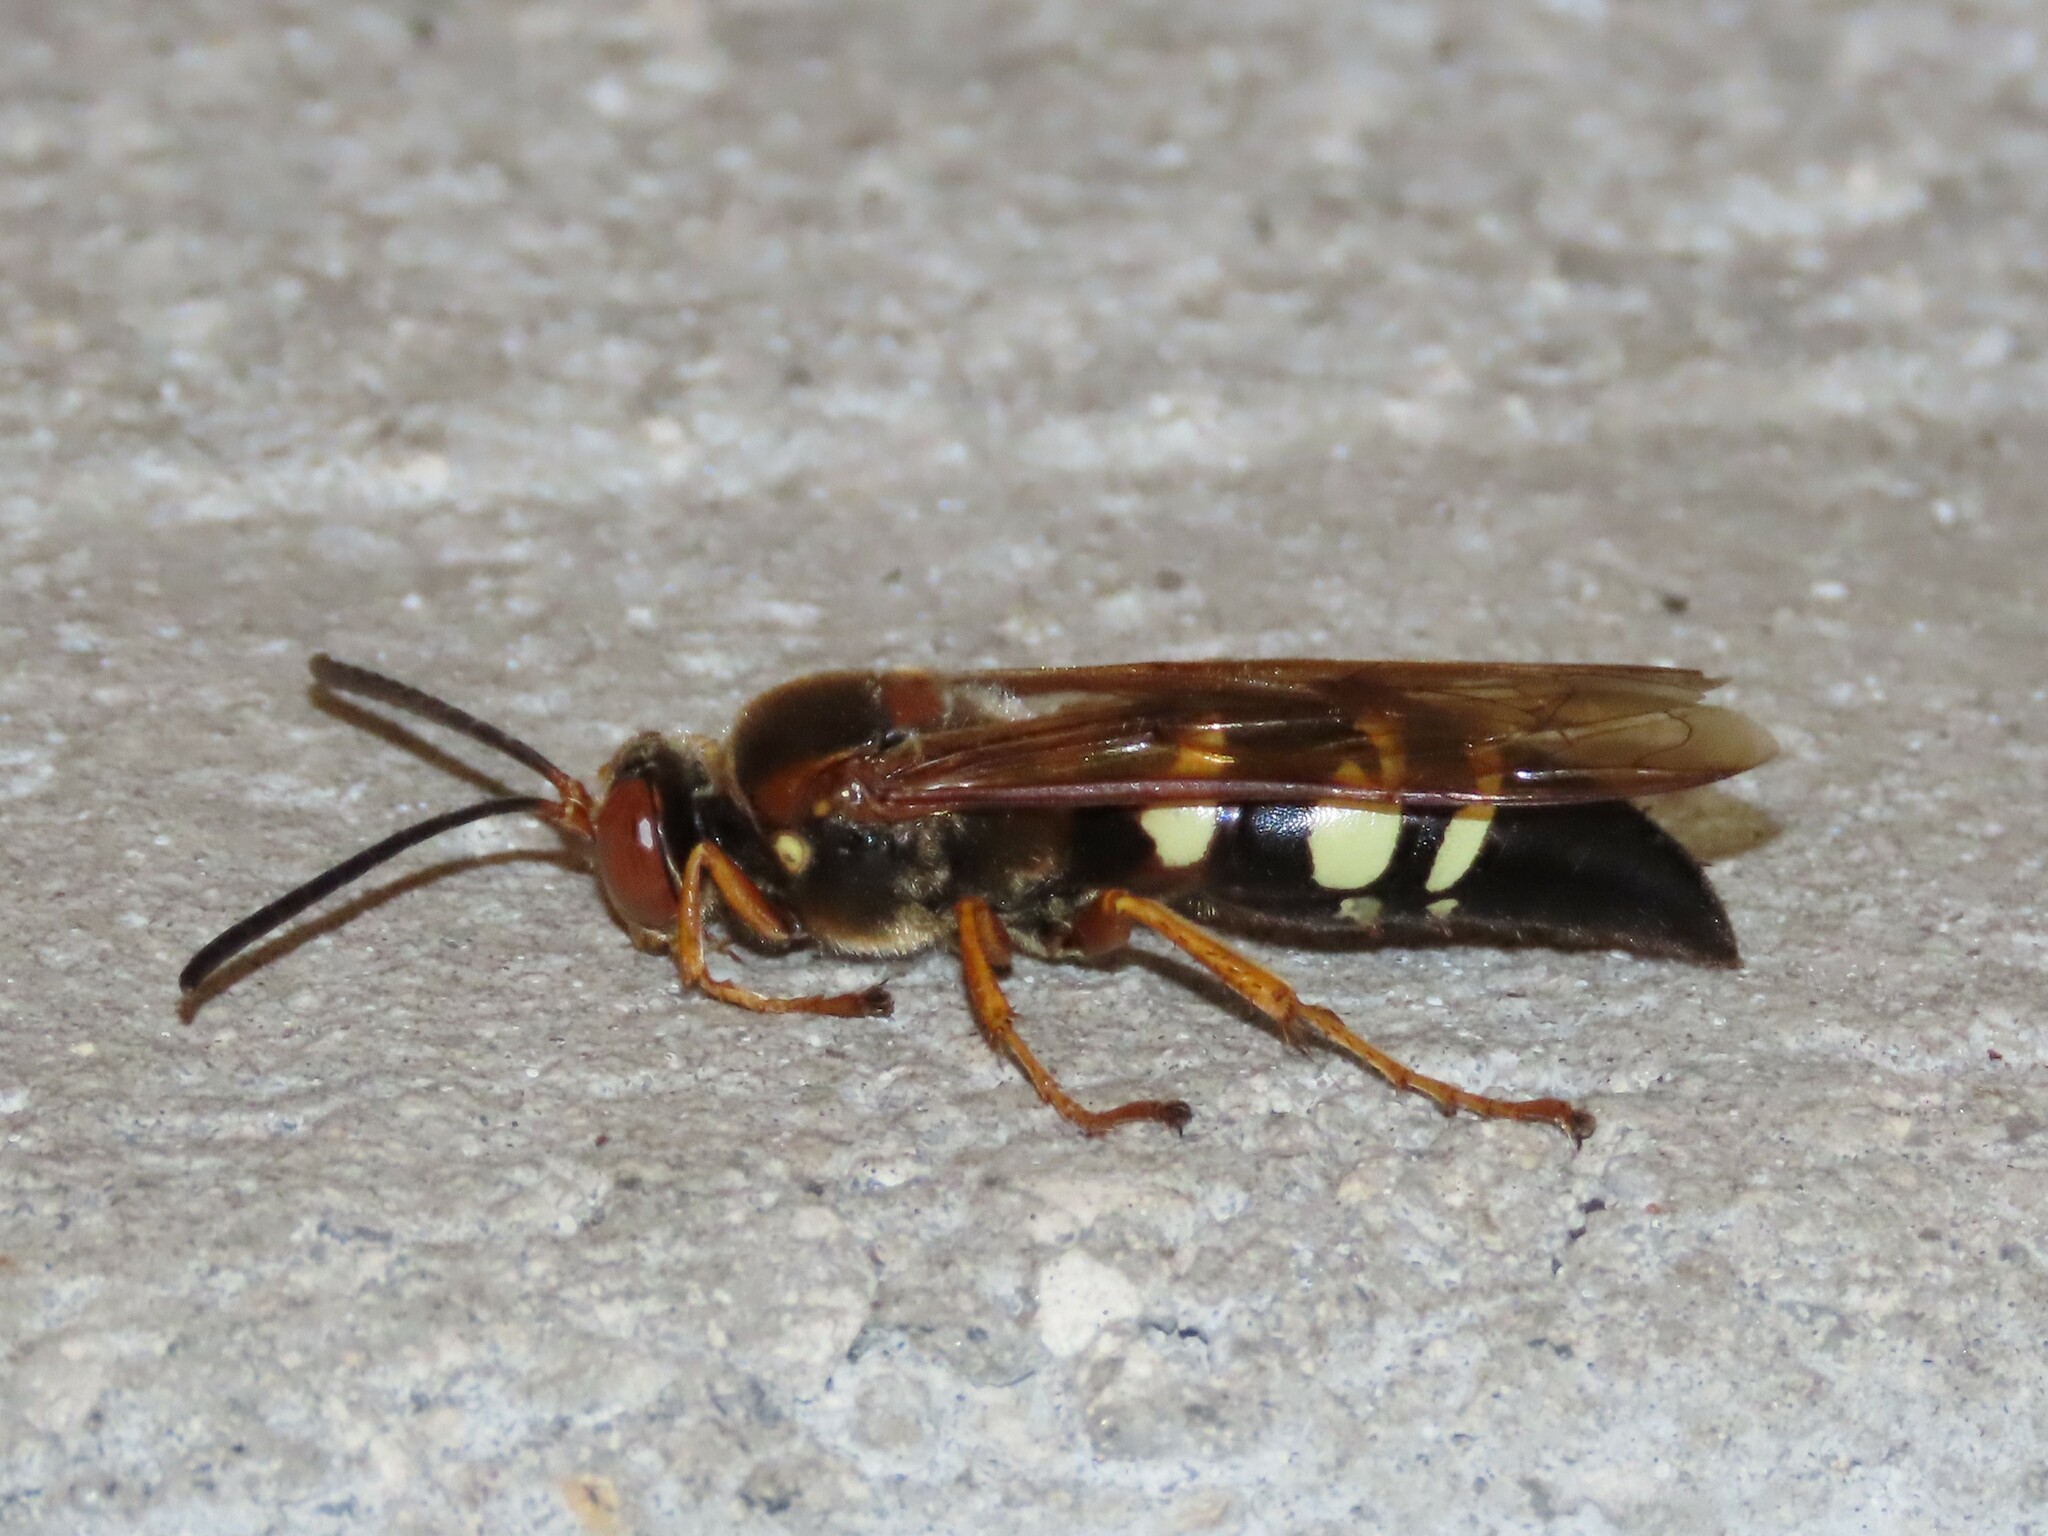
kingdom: Animalia
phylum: Arthropoda
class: Insecta
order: Hymenoptera
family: Crabronidae
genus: Sphecius
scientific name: Sphecius speciosus
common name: Cicada killer
